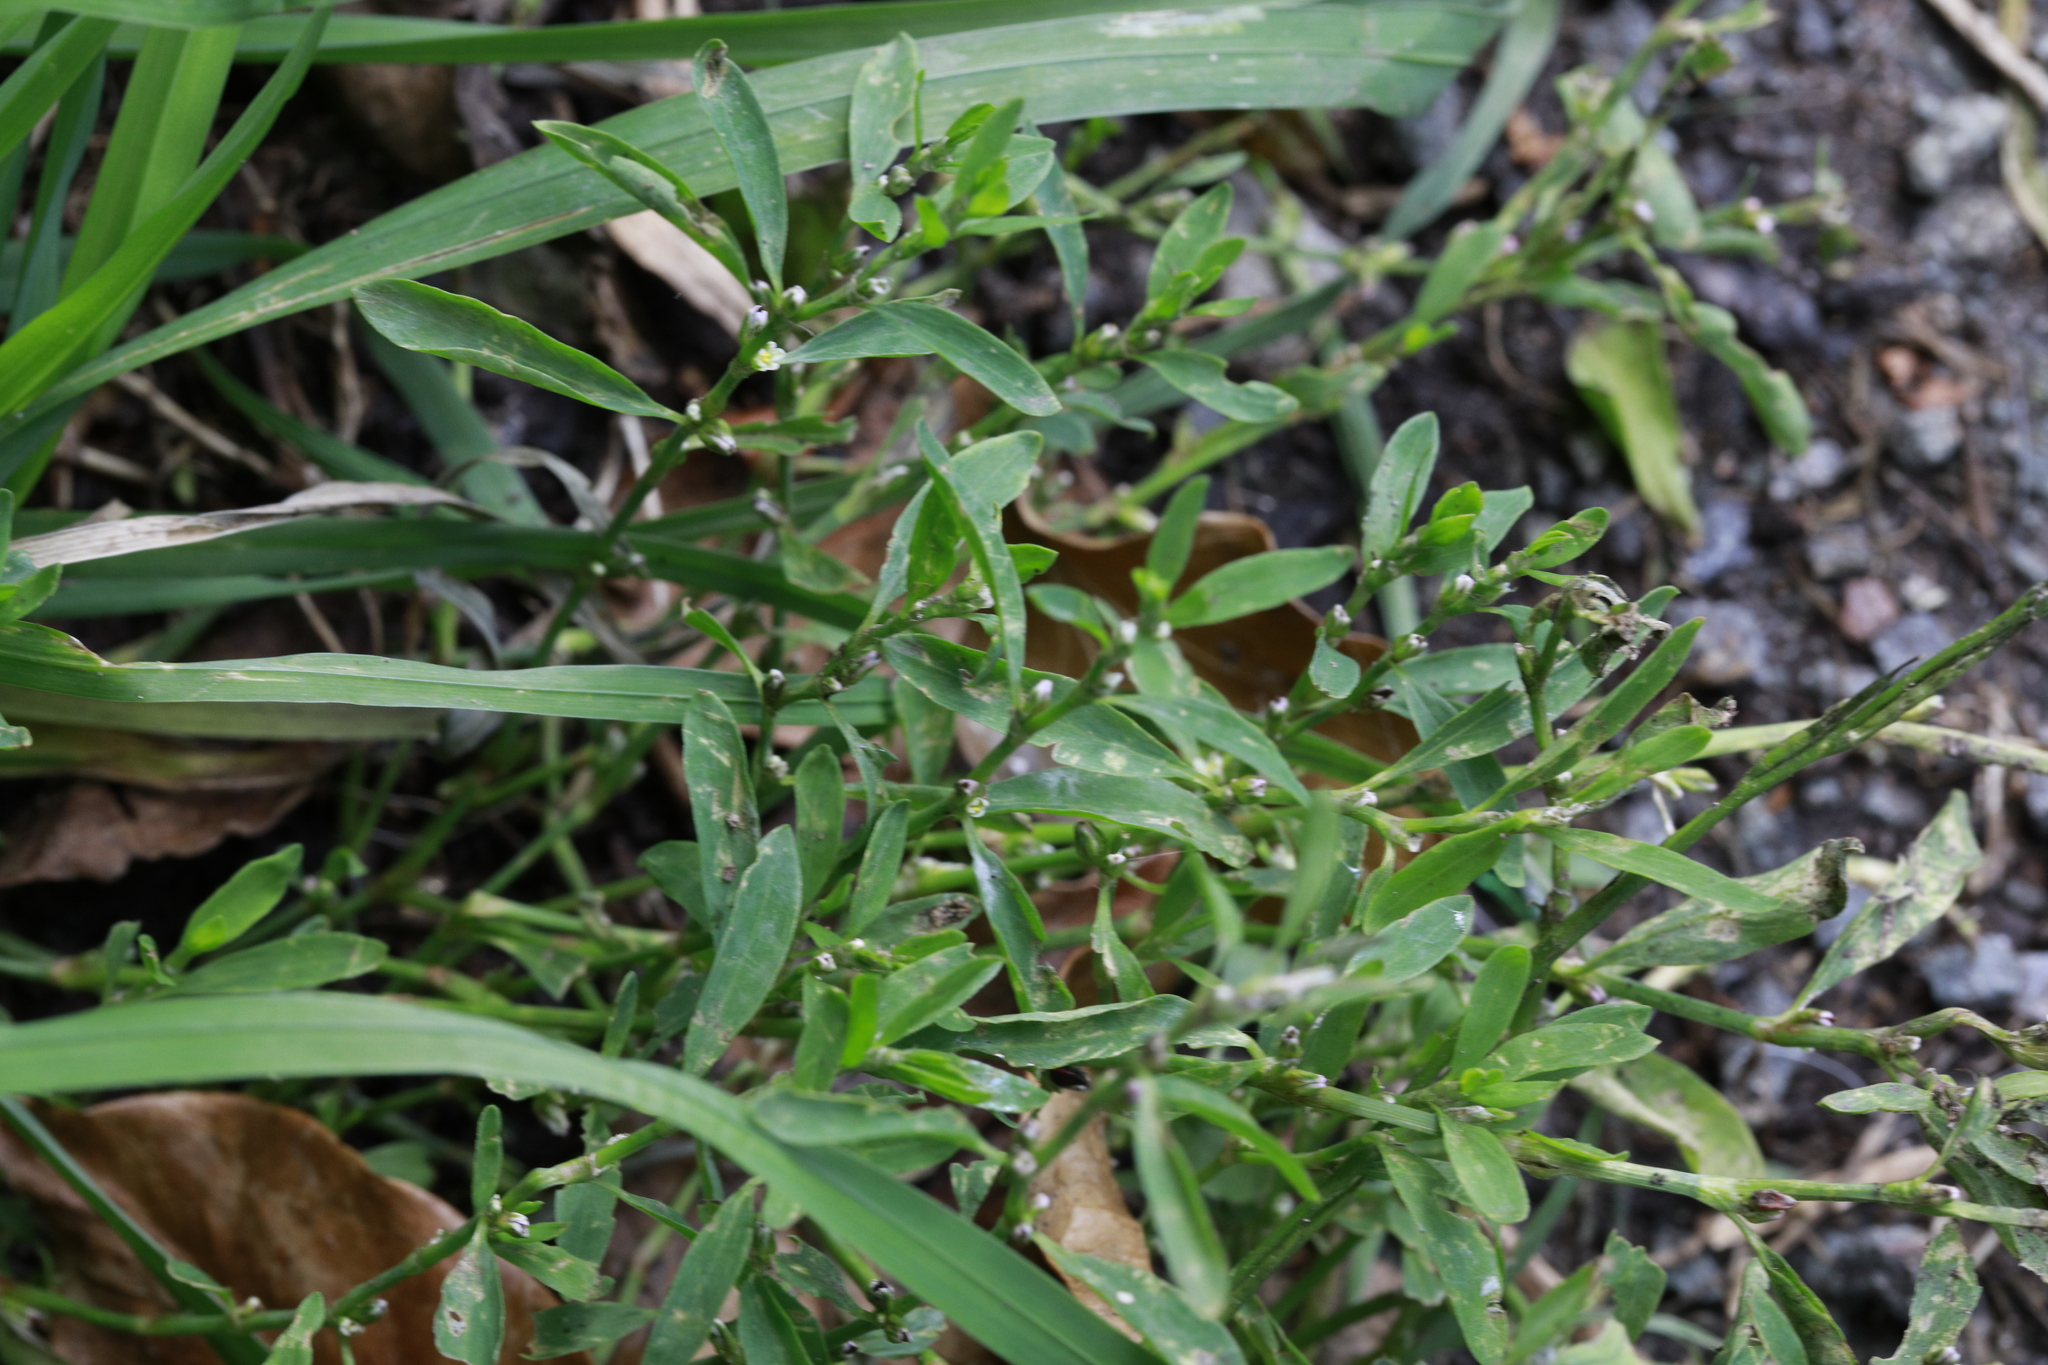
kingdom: Plantae
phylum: Tracheophyta
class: Magnoliopsida
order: Caryophyllales
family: Polygonaceae
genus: Polygonum
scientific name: Polygonum aviculare
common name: Prostrate knotweed
